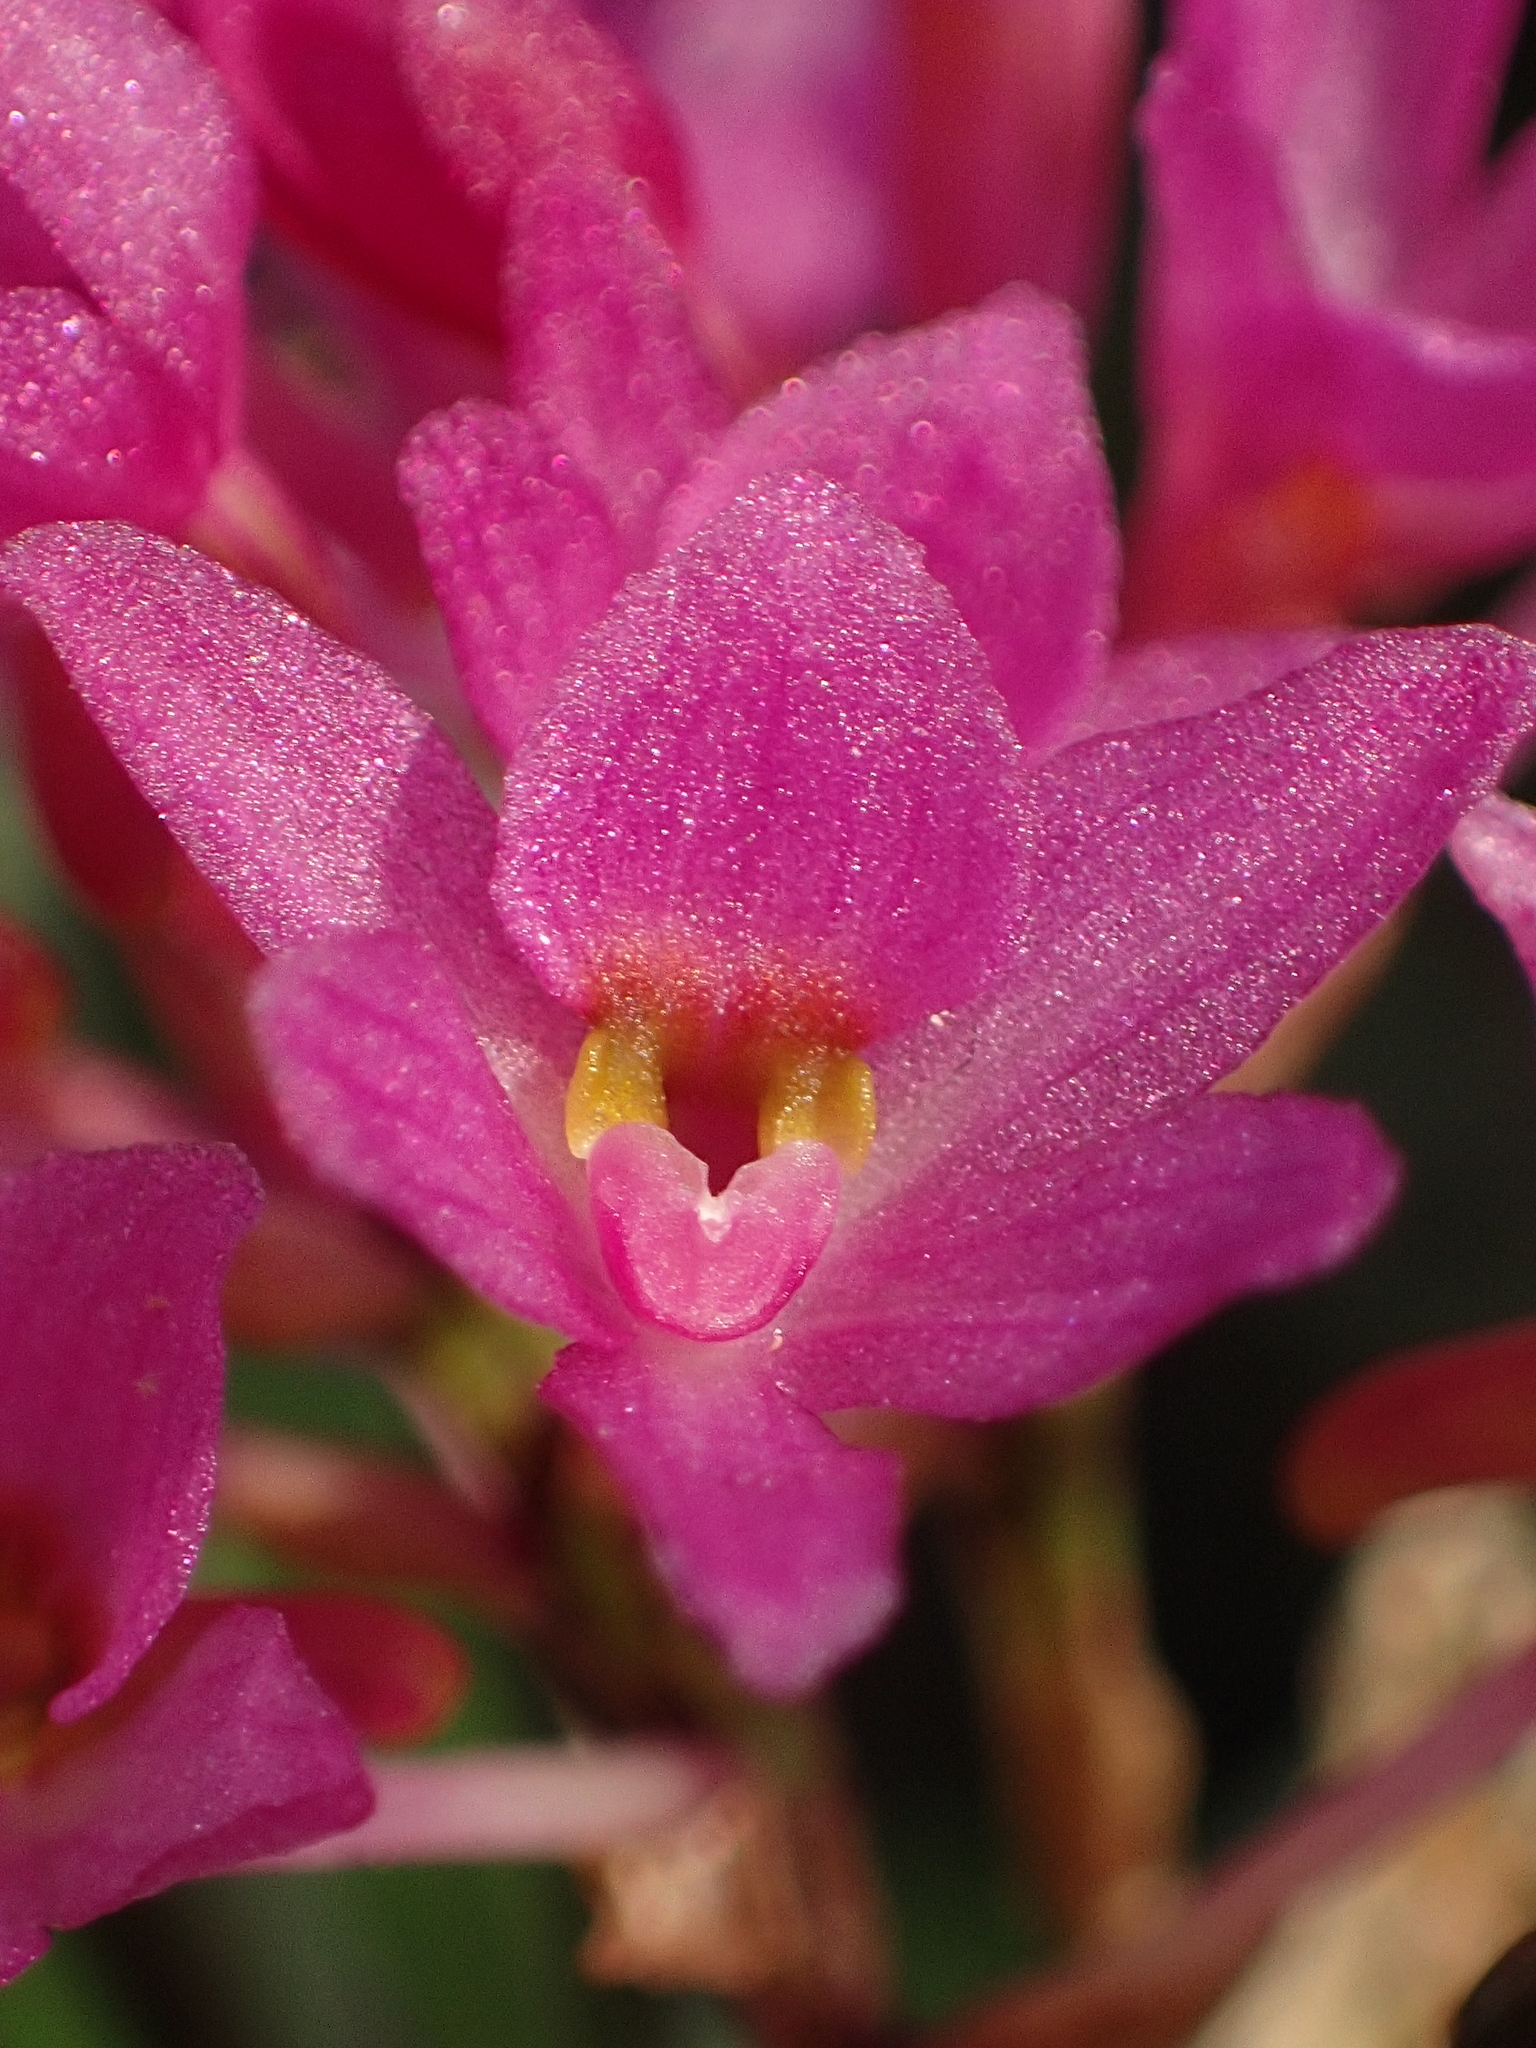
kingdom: Plantae
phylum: Tracheophyta
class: Liliopsida
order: Asparagales
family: Orchidaceae
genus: Holcoglossum
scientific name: Holcoglossum pumilum
